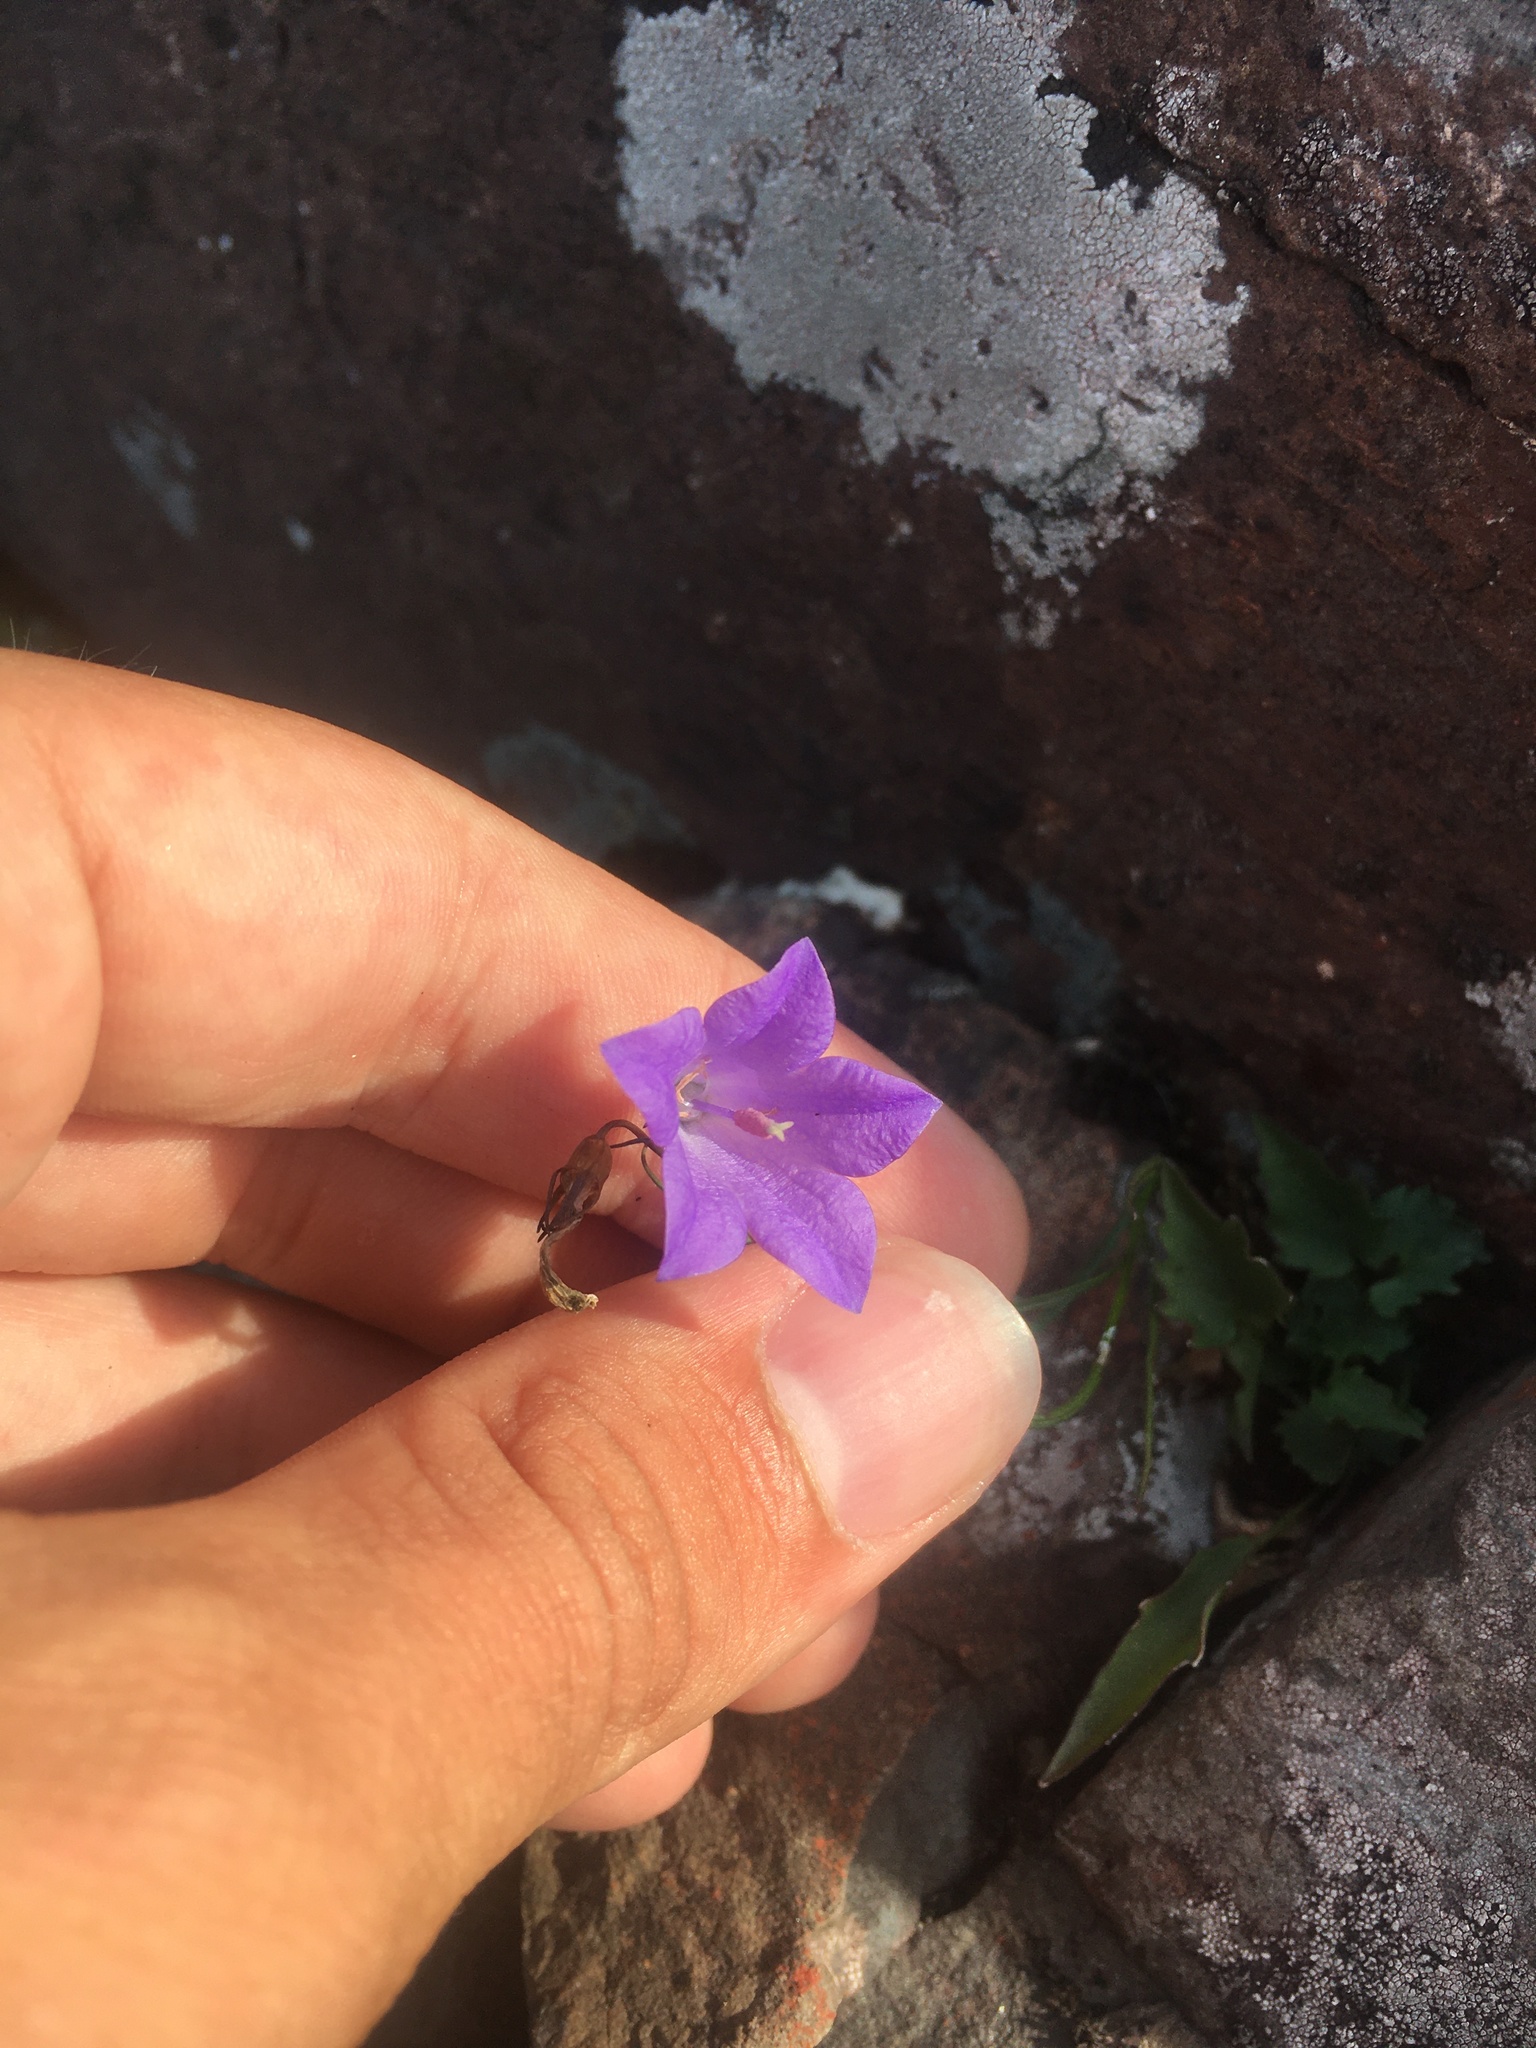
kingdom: Plantae
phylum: Tracheophyta
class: Magnoliopsida
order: Asterales
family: Campanulaceae
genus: Campanula
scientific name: Campanula intercedens
